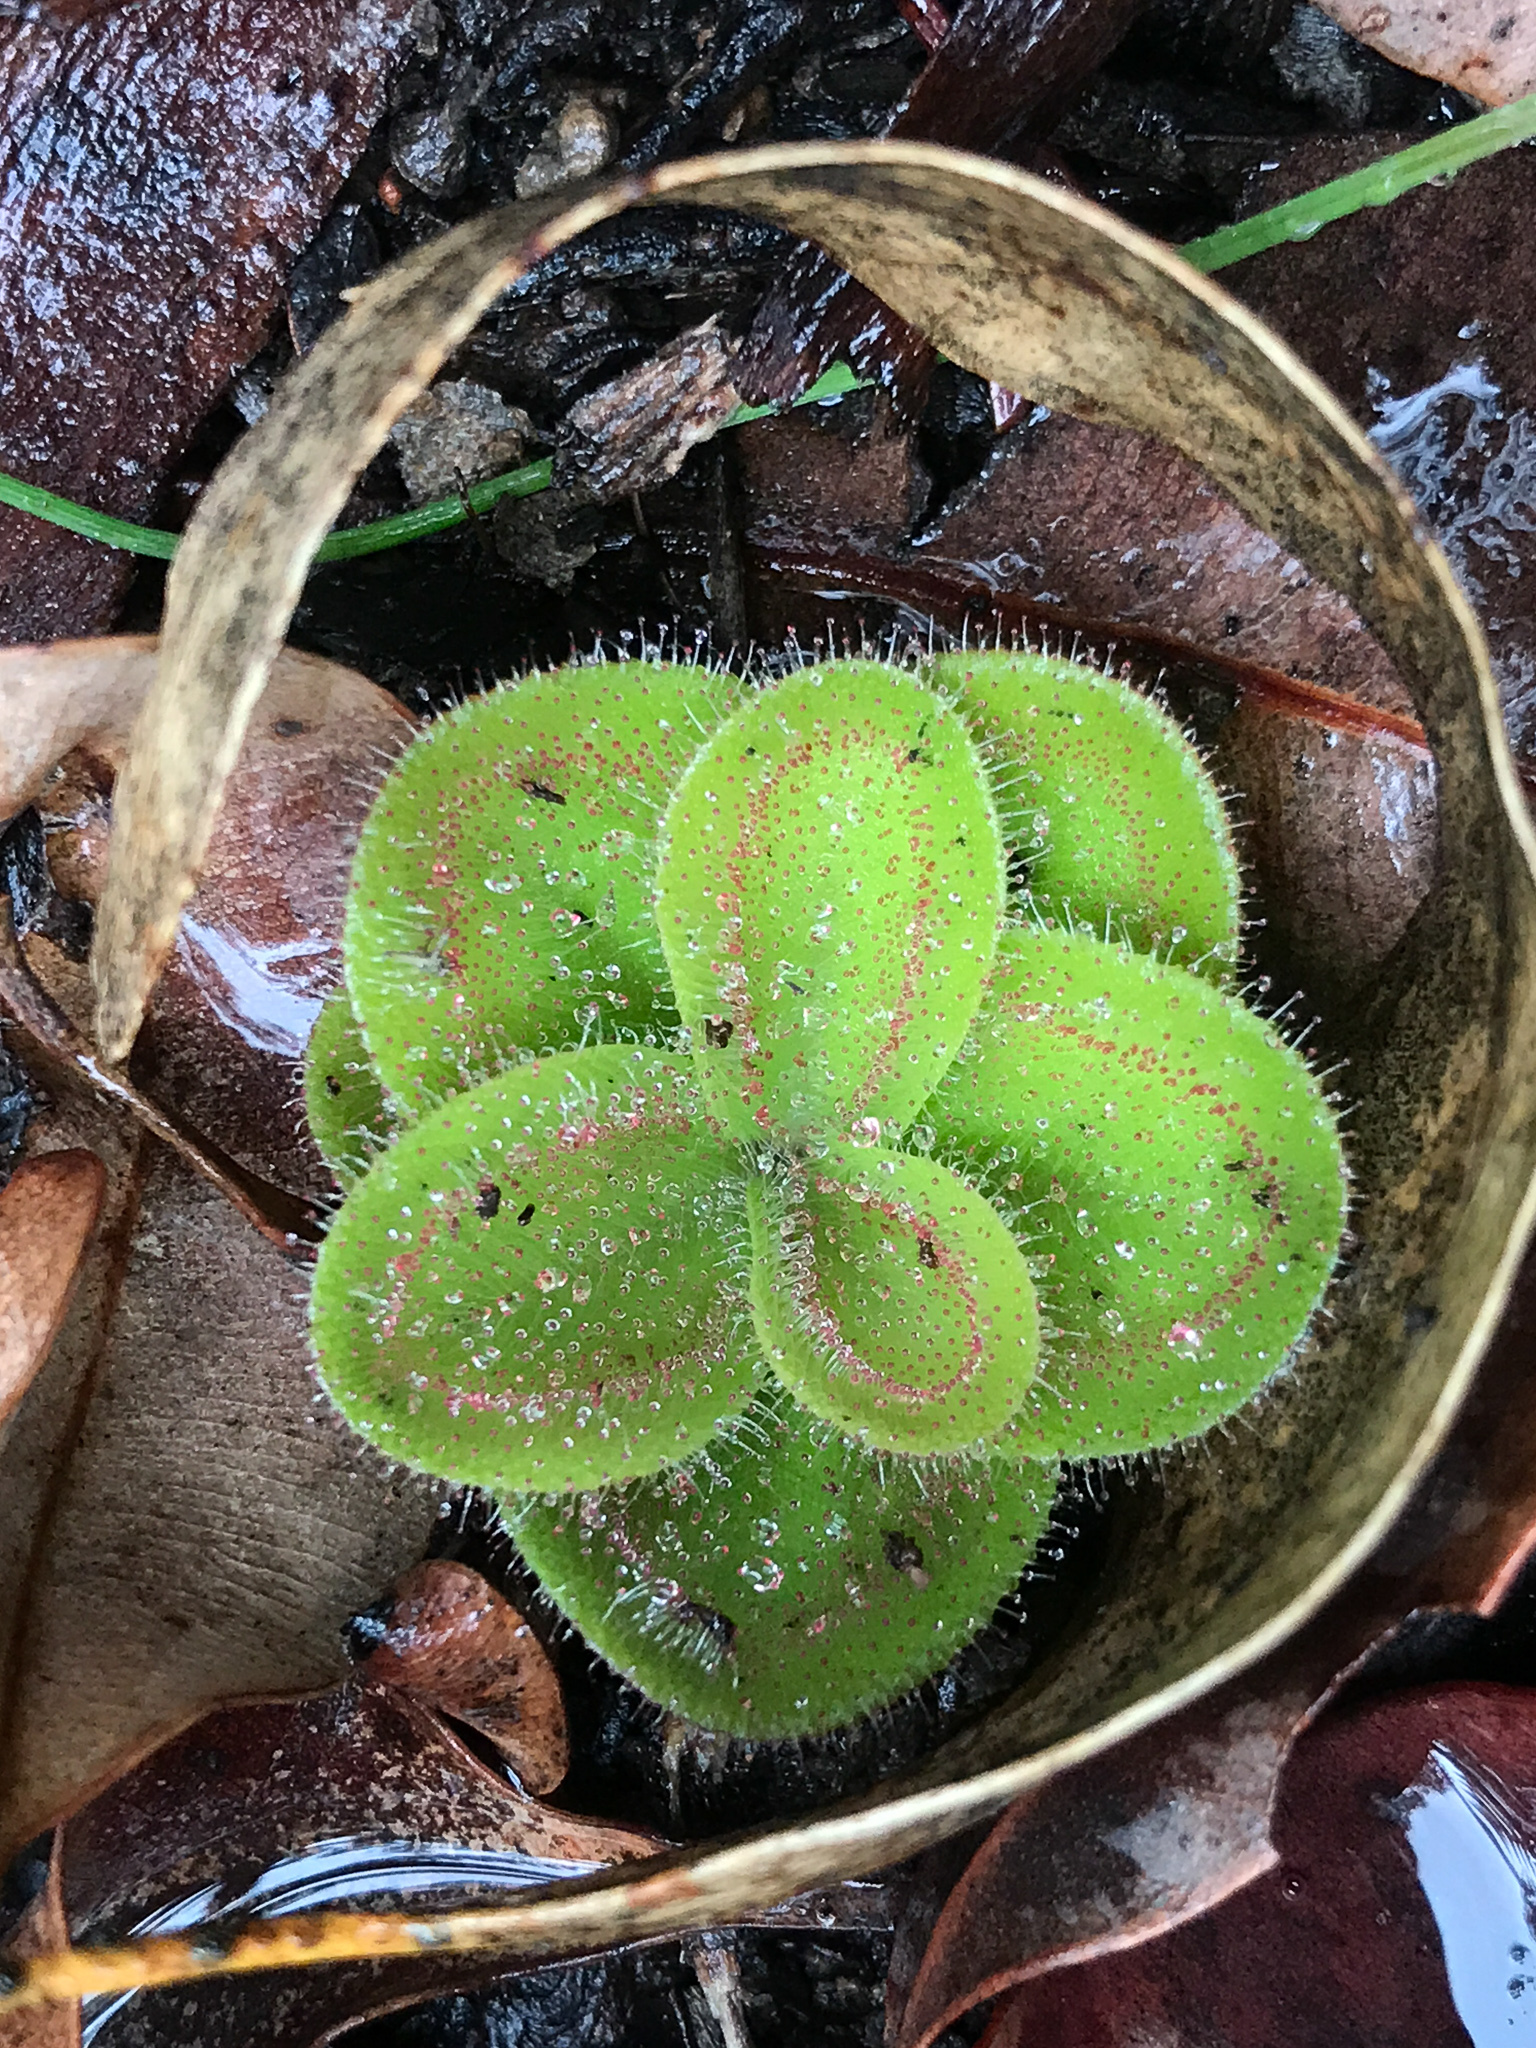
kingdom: Plantae
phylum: Tracheophyta
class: Magnoliopsida
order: Caryophyllales
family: Droseraceae
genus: Drosera
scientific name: Drosera erythrorhiza
